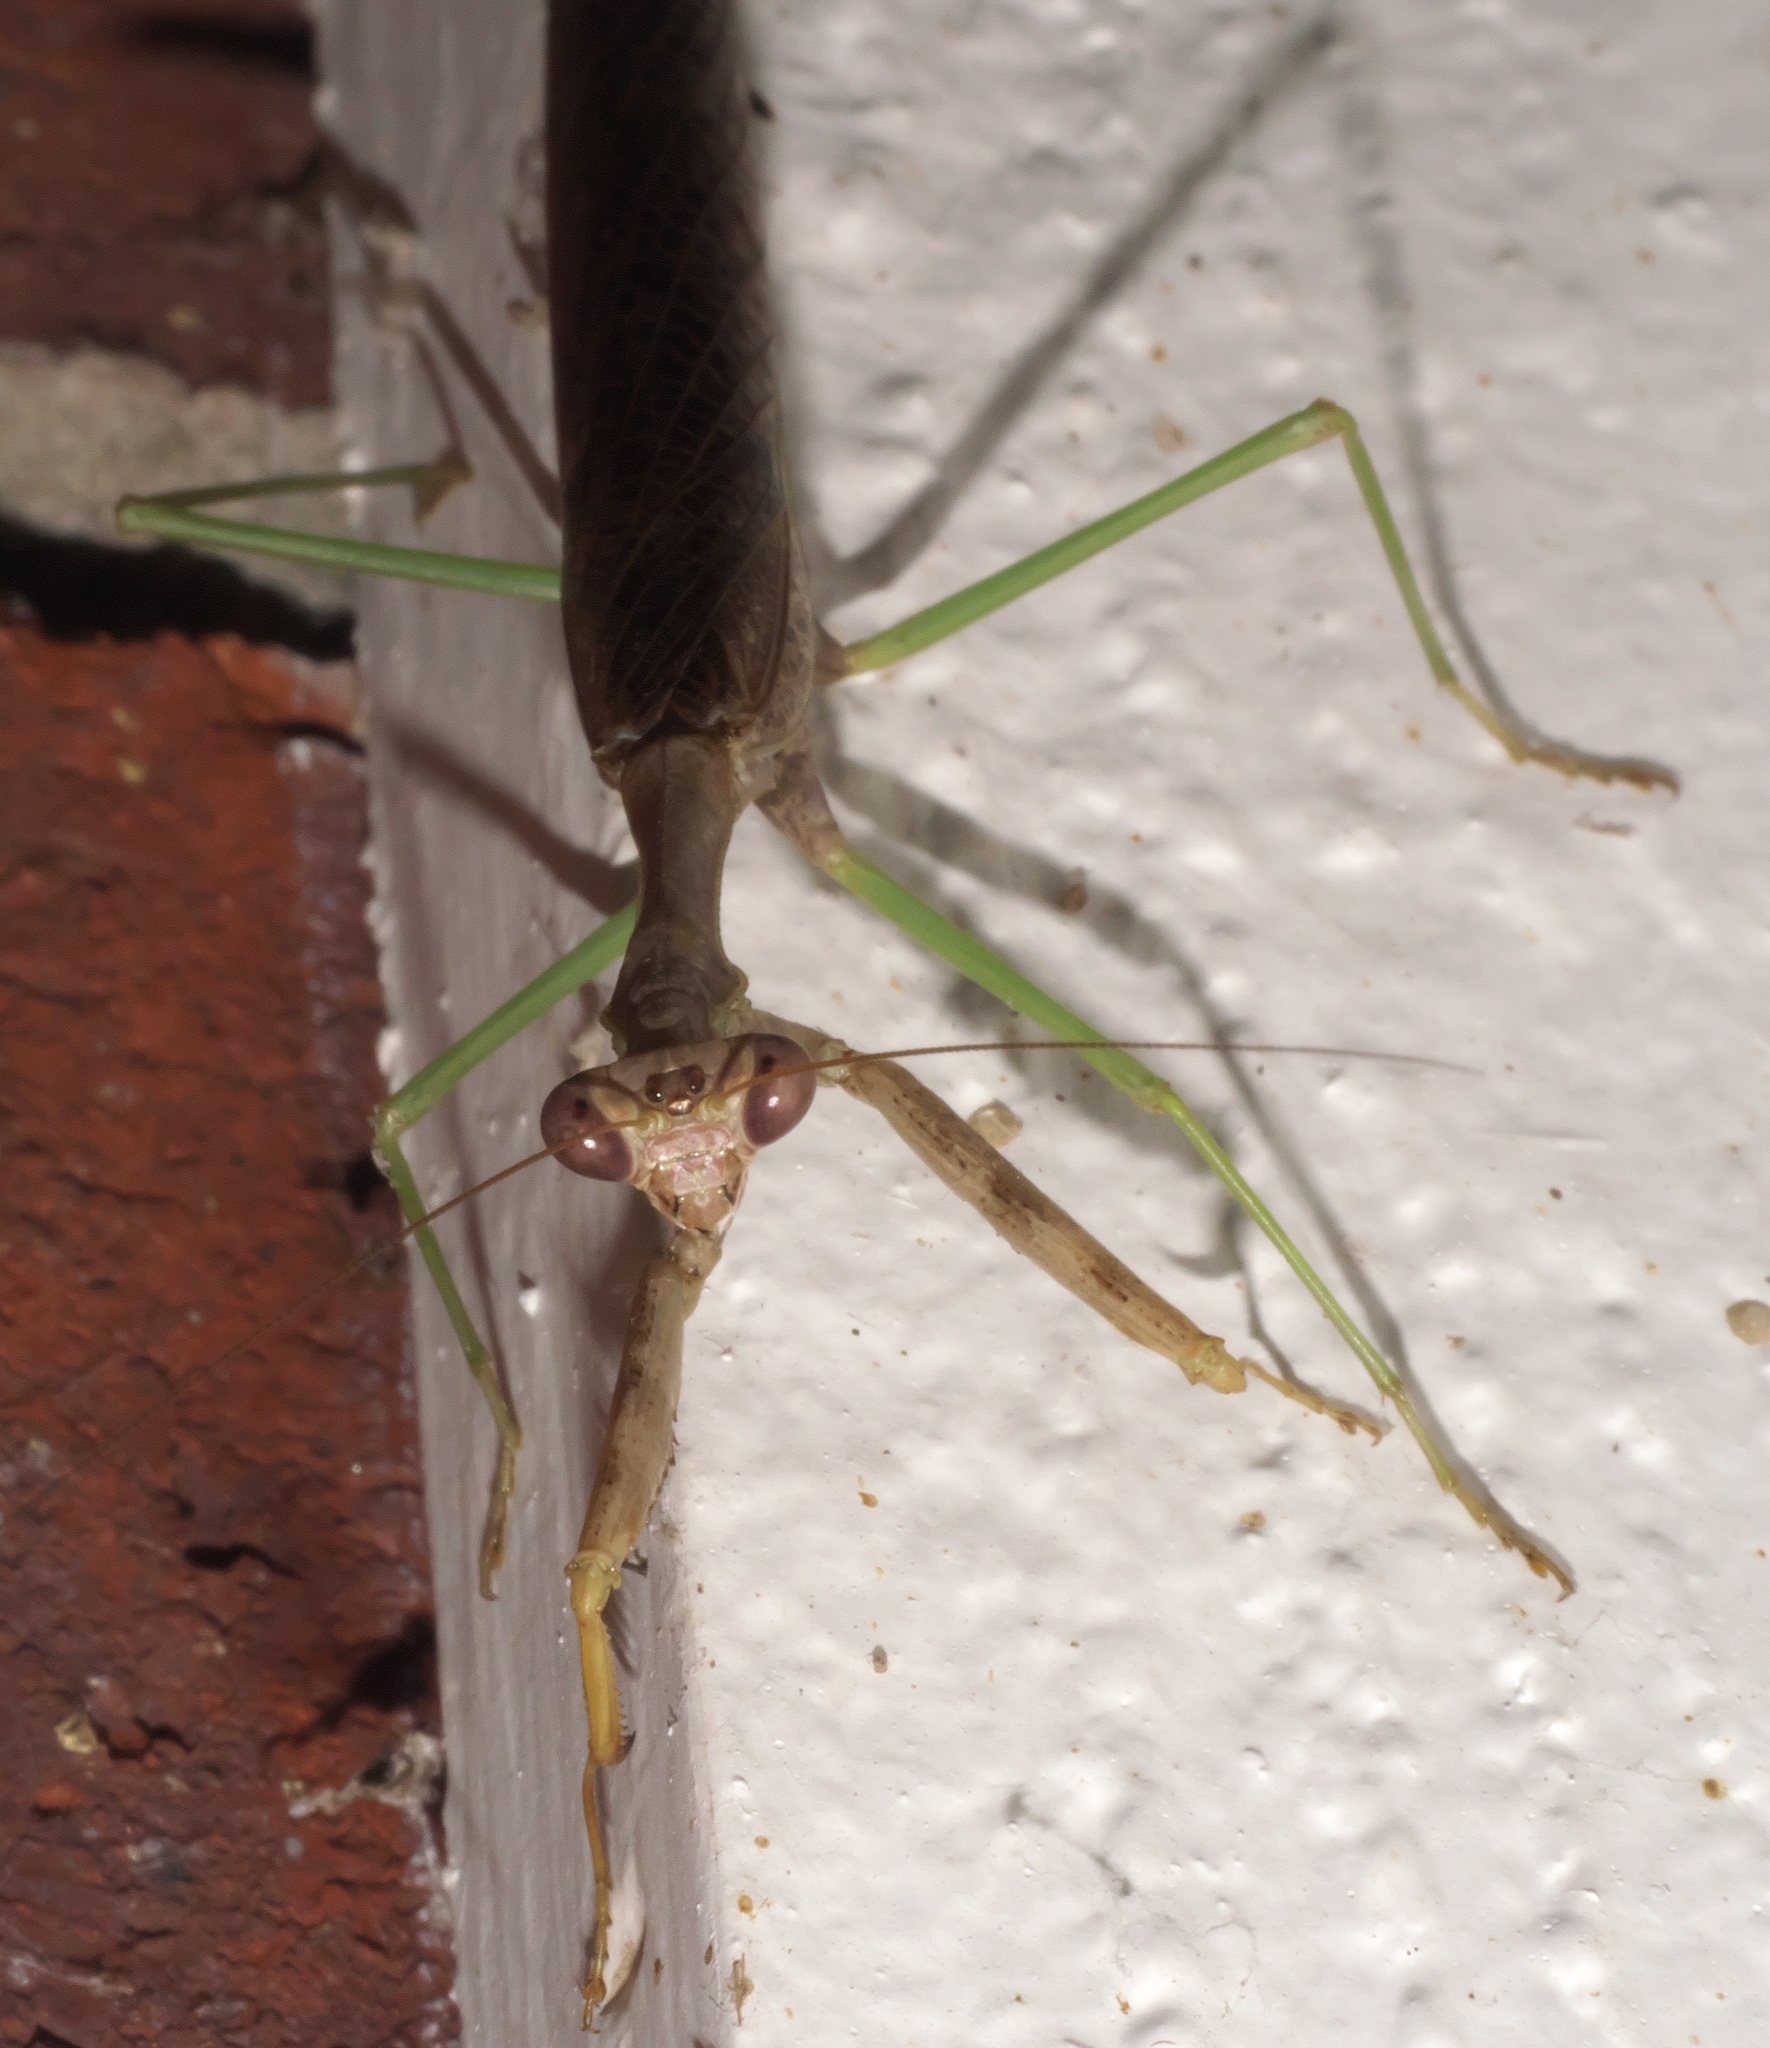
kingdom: Animalia
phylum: Arthropoda
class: Insecta
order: Mantodea
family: Mantidae
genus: Stagmomantis
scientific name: Stagmomantis carolina
